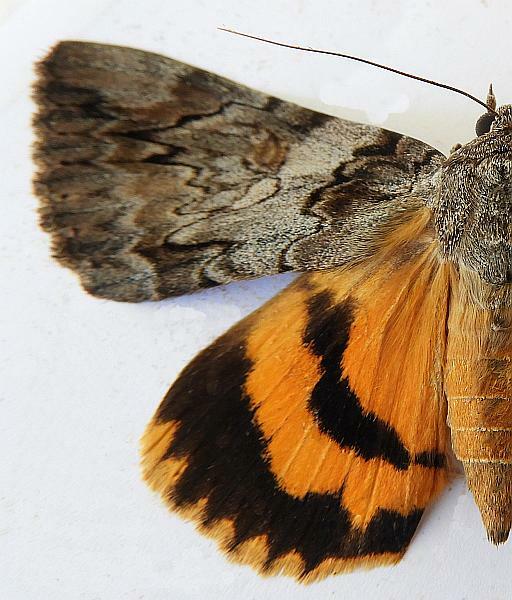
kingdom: Animalia
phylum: Arthropoda
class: Insecta
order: Lepidoptera
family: Erebidae
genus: Catocala
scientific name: Catocala neogama
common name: Bride underwing
